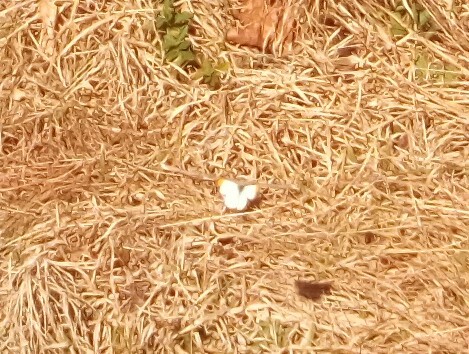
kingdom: Animalia
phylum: Arthropoda
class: Insecta
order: Lepidoptera
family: Pieridae
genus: Anthocharis
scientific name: Anthocharis midea
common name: Falcate orangetip
